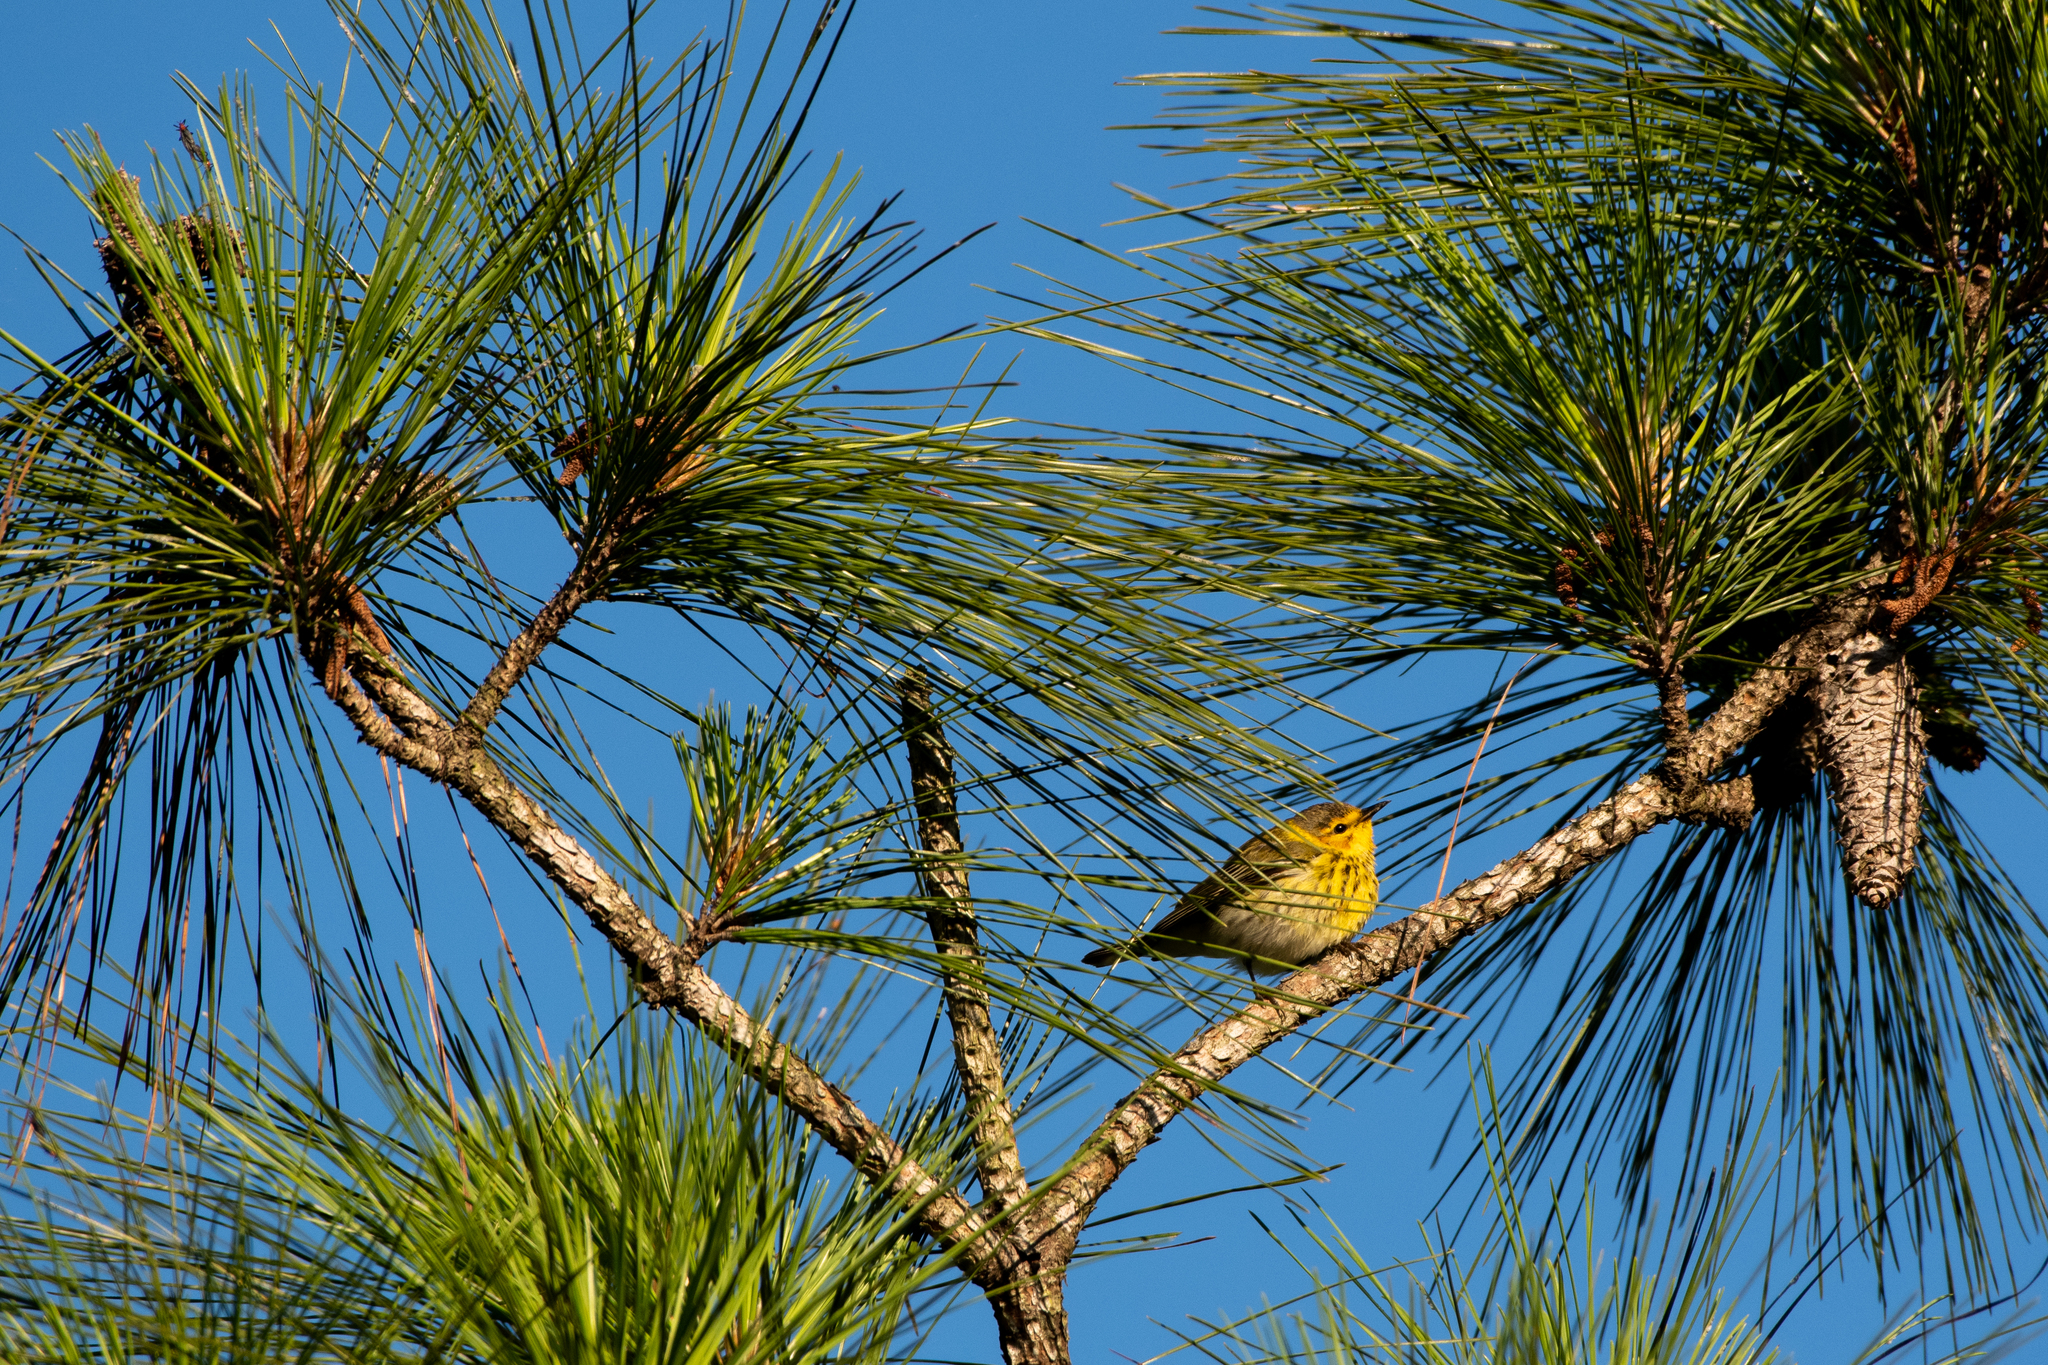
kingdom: Animalia
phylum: Chordata
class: Aves
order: Passeriformes
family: Parulidae
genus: Setophaga
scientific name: Setophaga tigrina
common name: Cape may warbler
